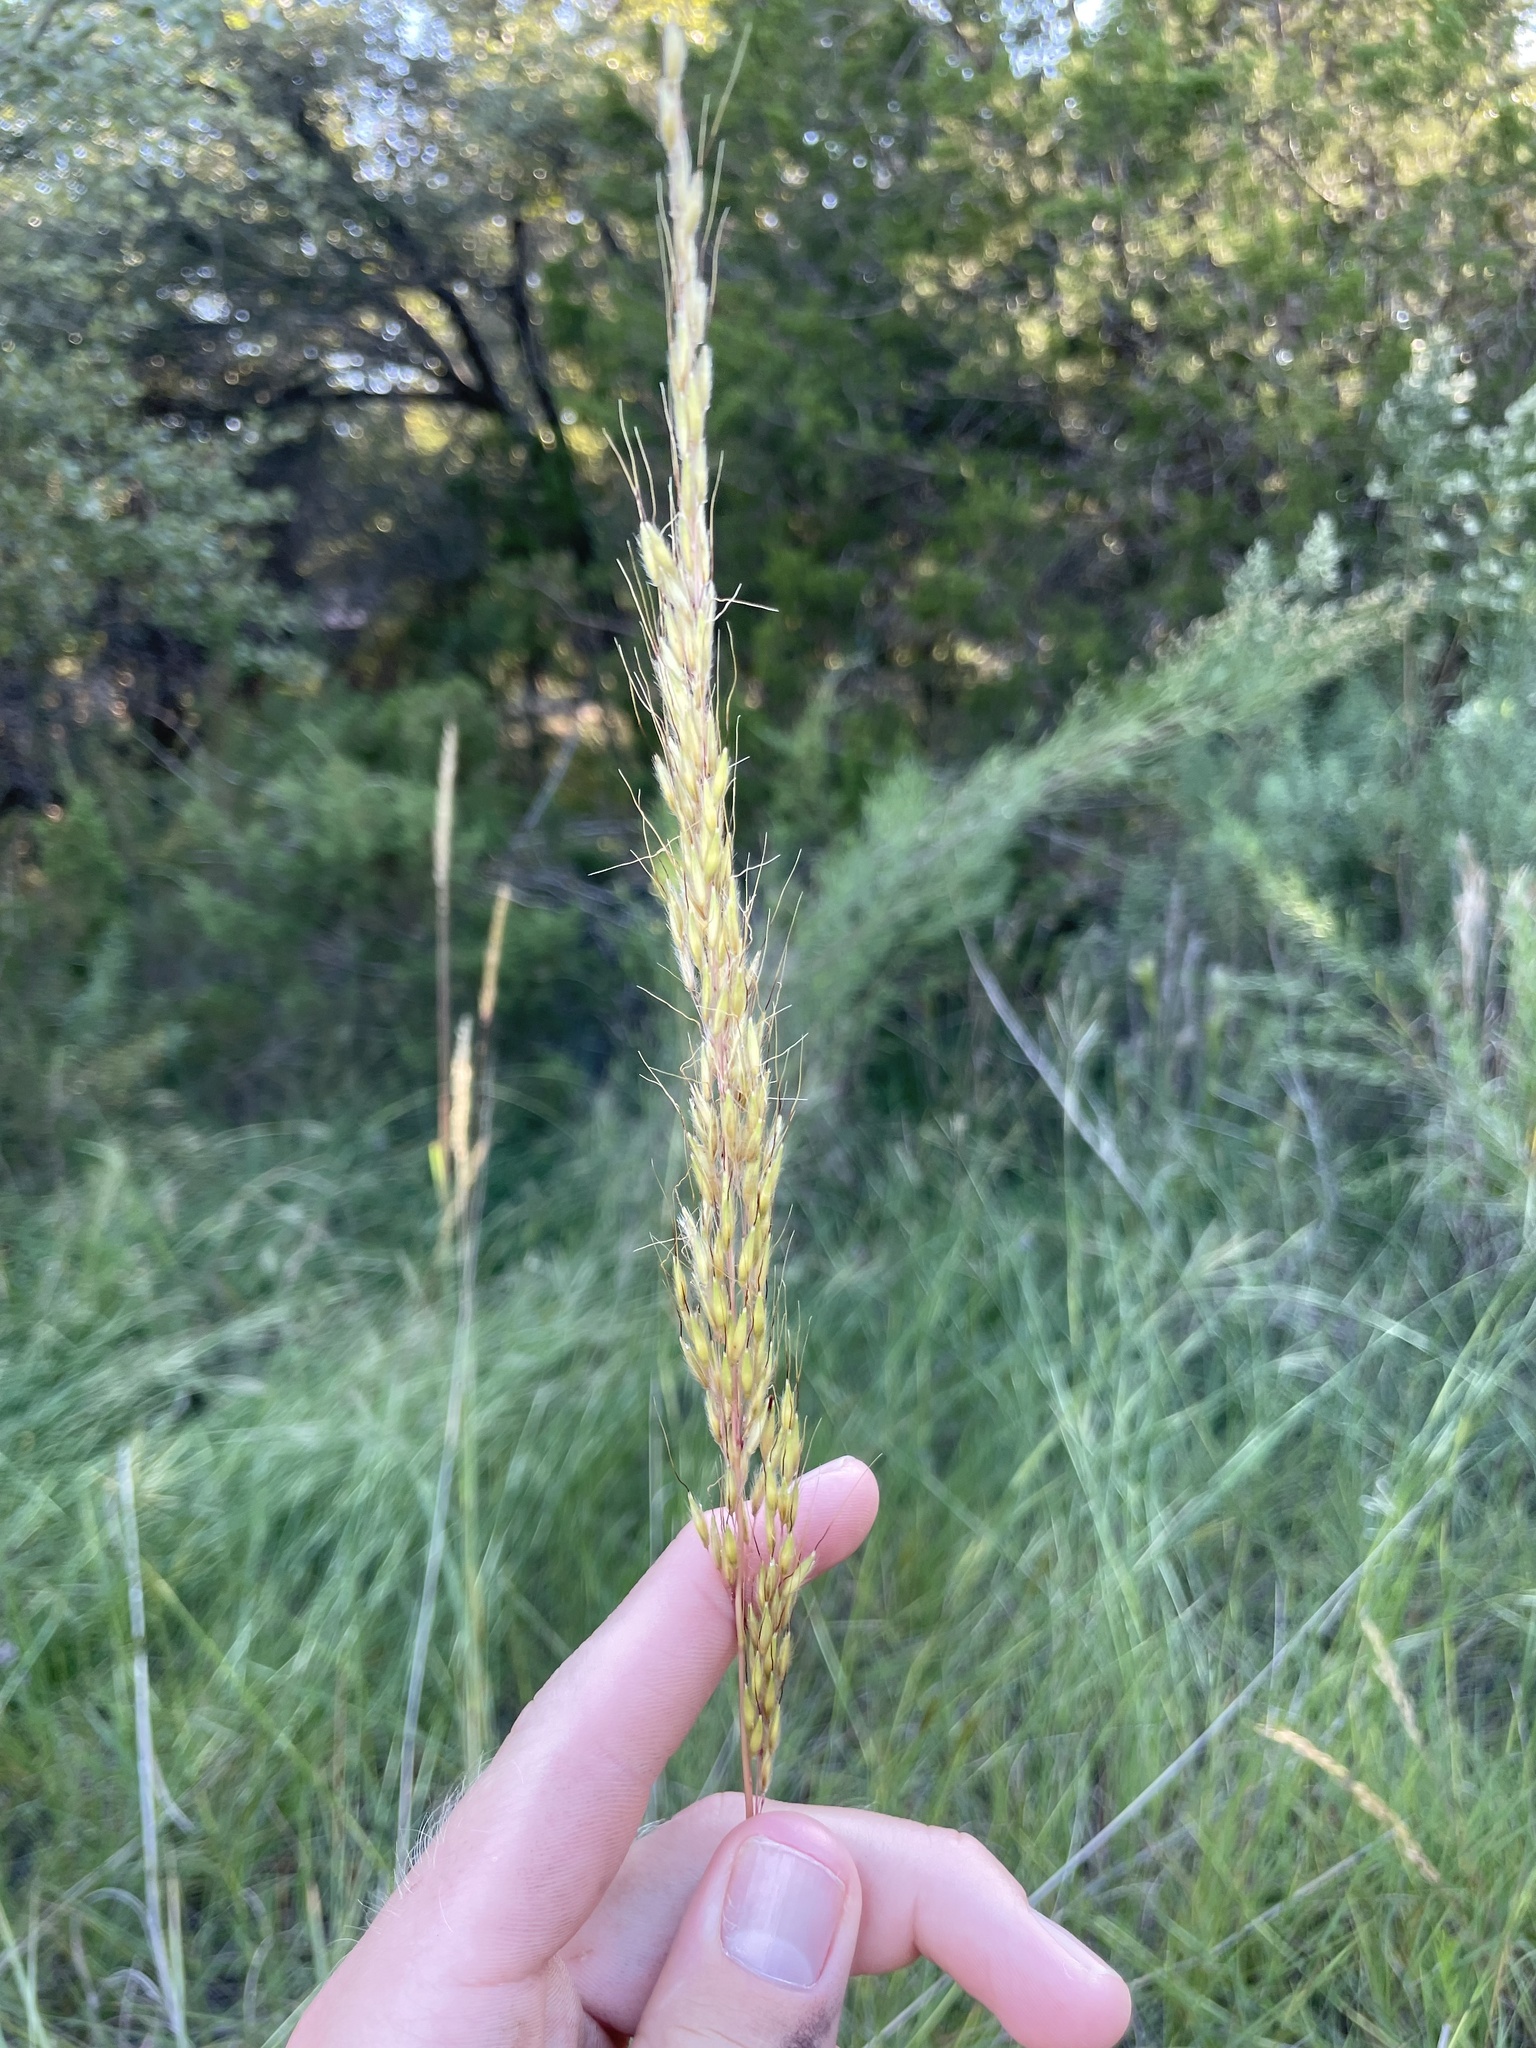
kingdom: Plantae
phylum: Tracheophyta
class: Liliopsida
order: Poales
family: Poaceae
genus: Sorghastrum
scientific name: Sorghastrum nutans
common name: Indian grass
